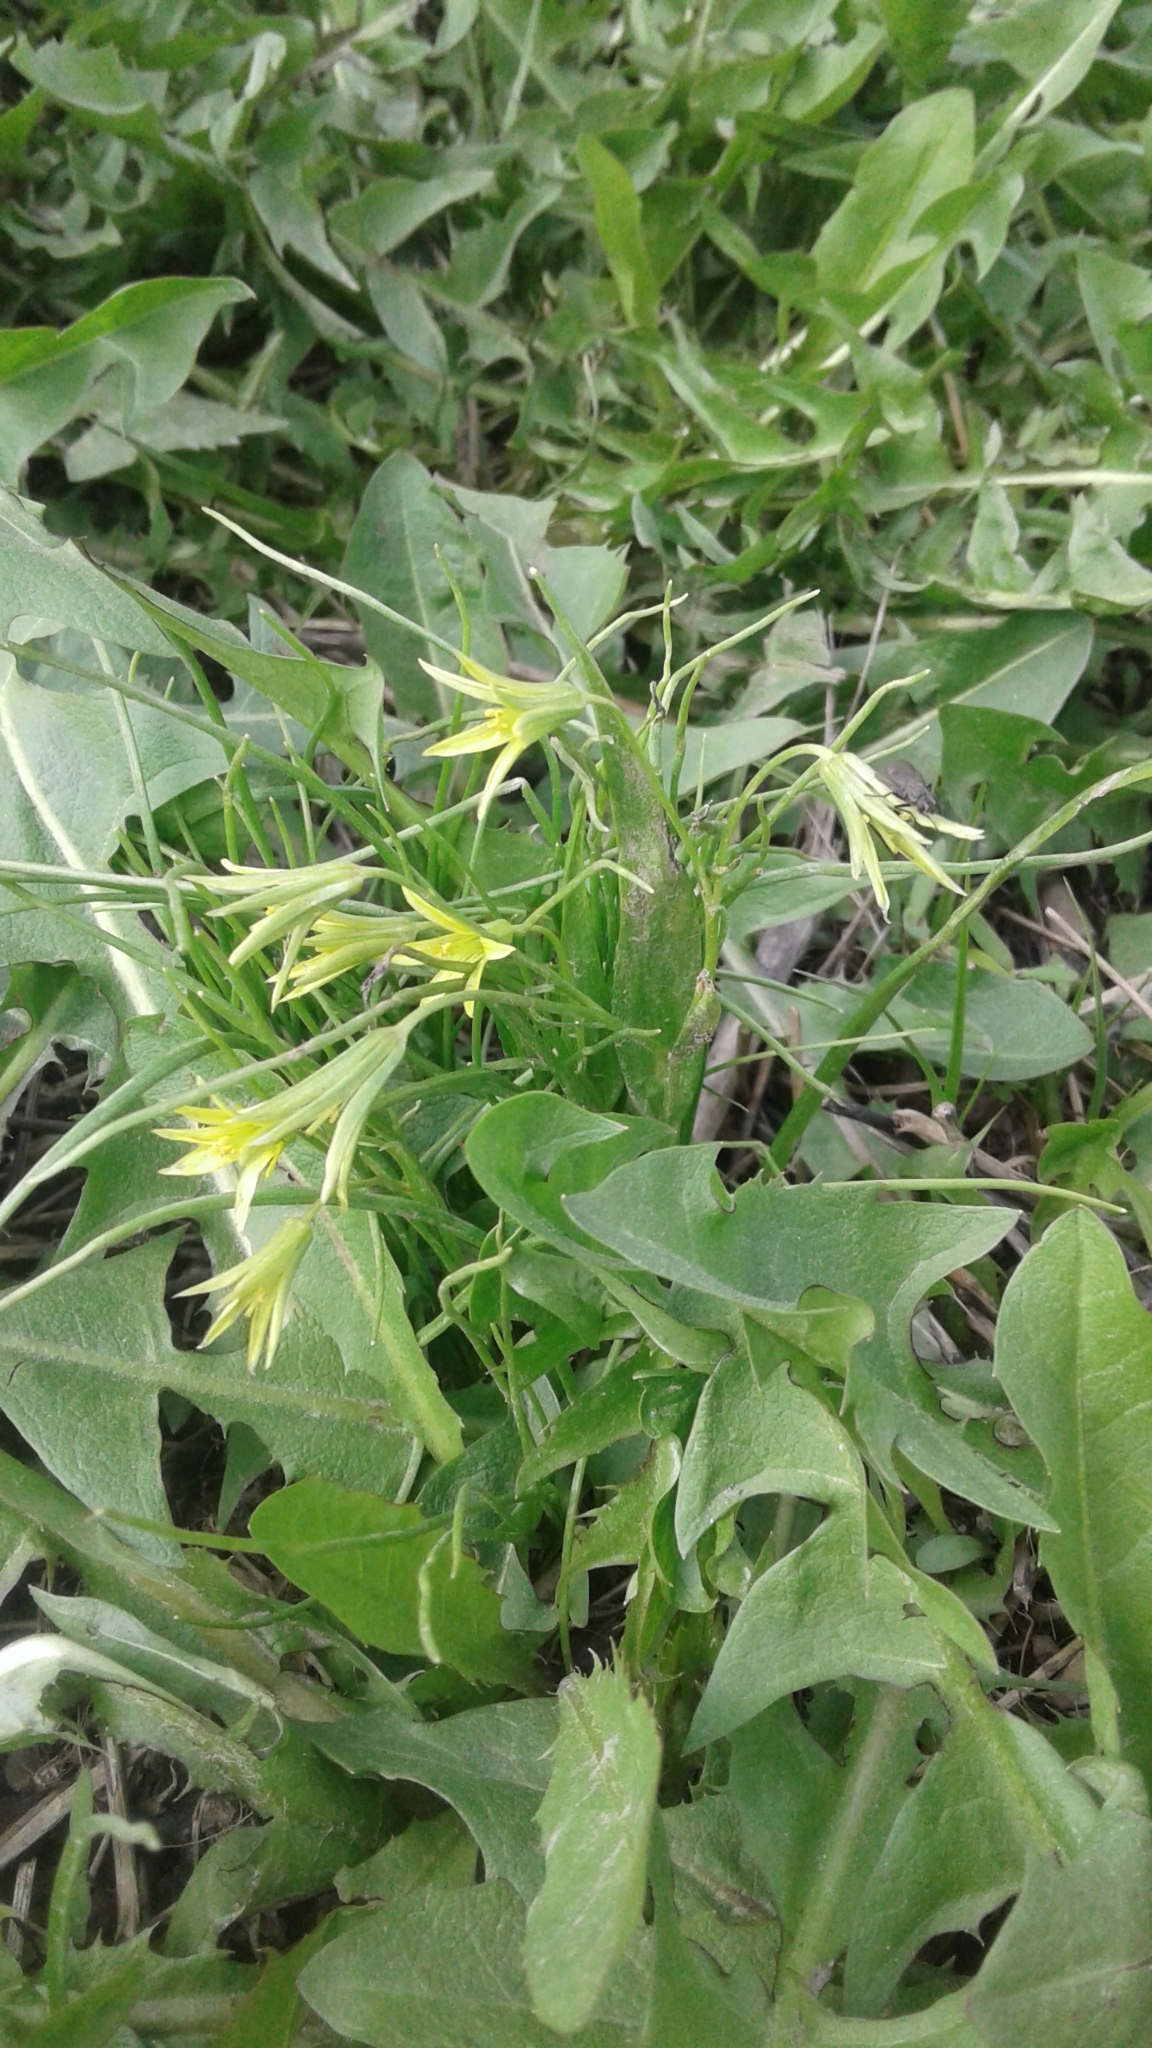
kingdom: Plantae
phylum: Tracheophyta
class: Liliopsida
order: Liliales
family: Liliaceae
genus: Gagea
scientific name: Gagea minima
